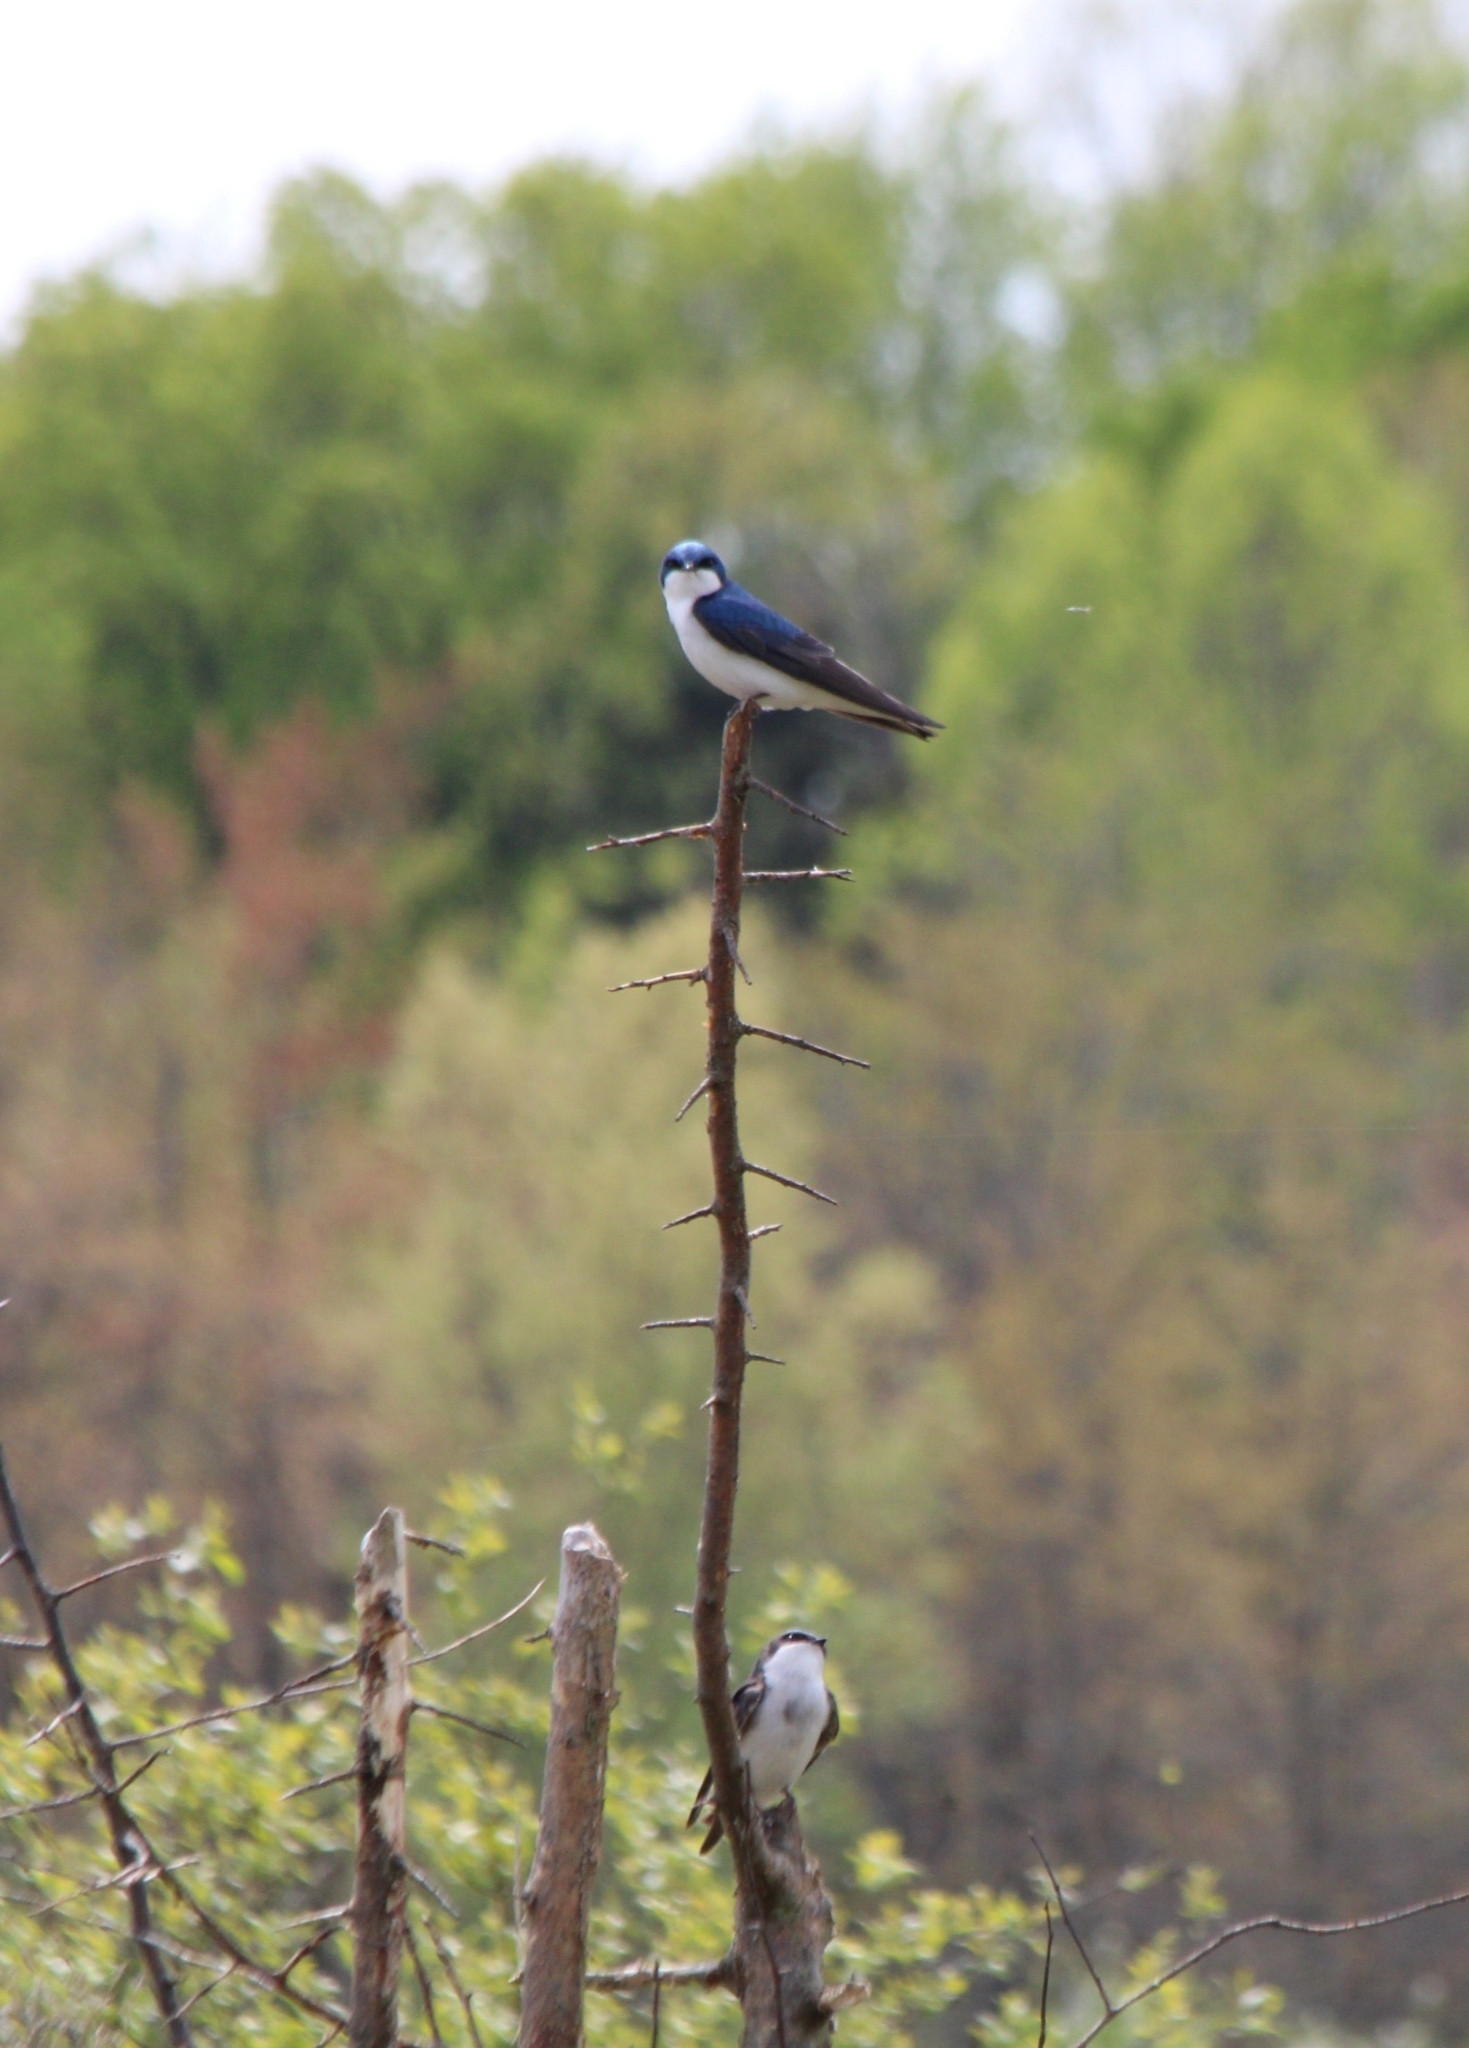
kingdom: Animalia
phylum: Chordata
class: Aves
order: Passeriformes
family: Hirundinidae
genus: Tachycineta
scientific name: Tachycineta bicolor
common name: Tree swallow
